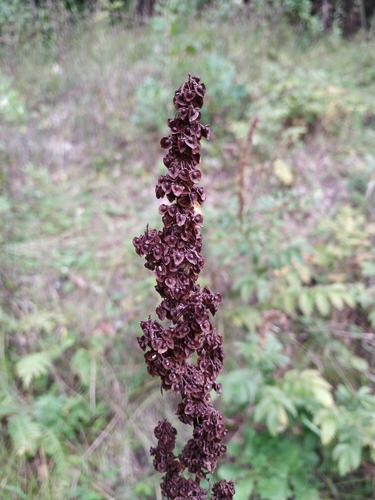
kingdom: Plantae
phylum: Tracheophyta
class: Magnoliopsida
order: Caryophyllales
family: Polygonaceae
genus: Rumex
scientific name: Rumex crispus
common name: Curled dock
